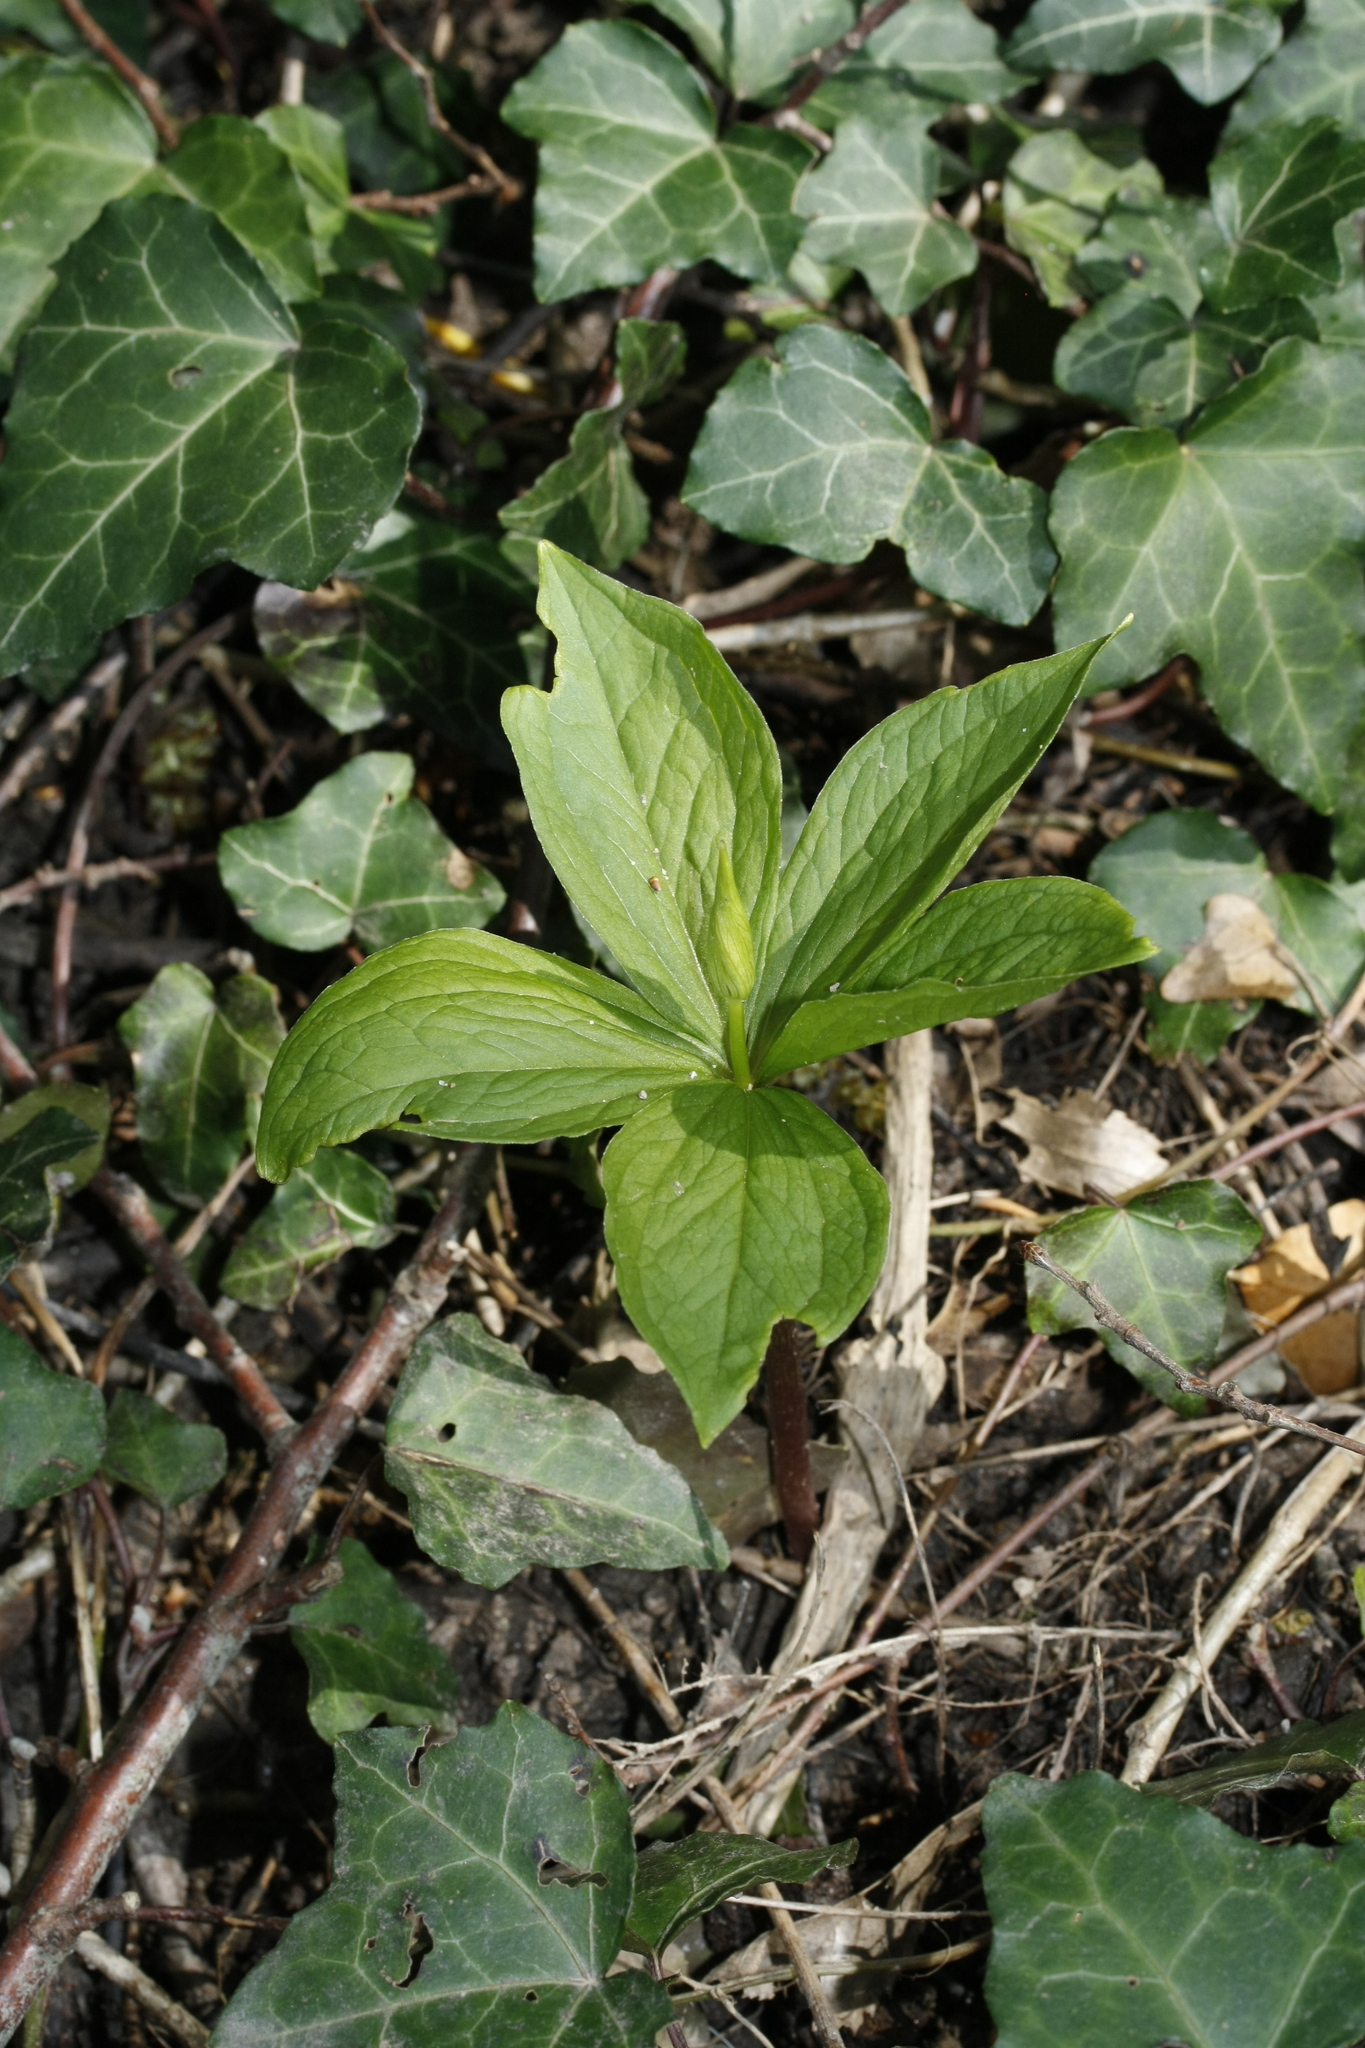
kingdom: Plantae
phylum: Tracheophyta
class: Liliopsida
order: Liliales
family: Melanthiaceae
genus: Paris
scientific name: Paris quadrifolia
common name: Herb-paris
